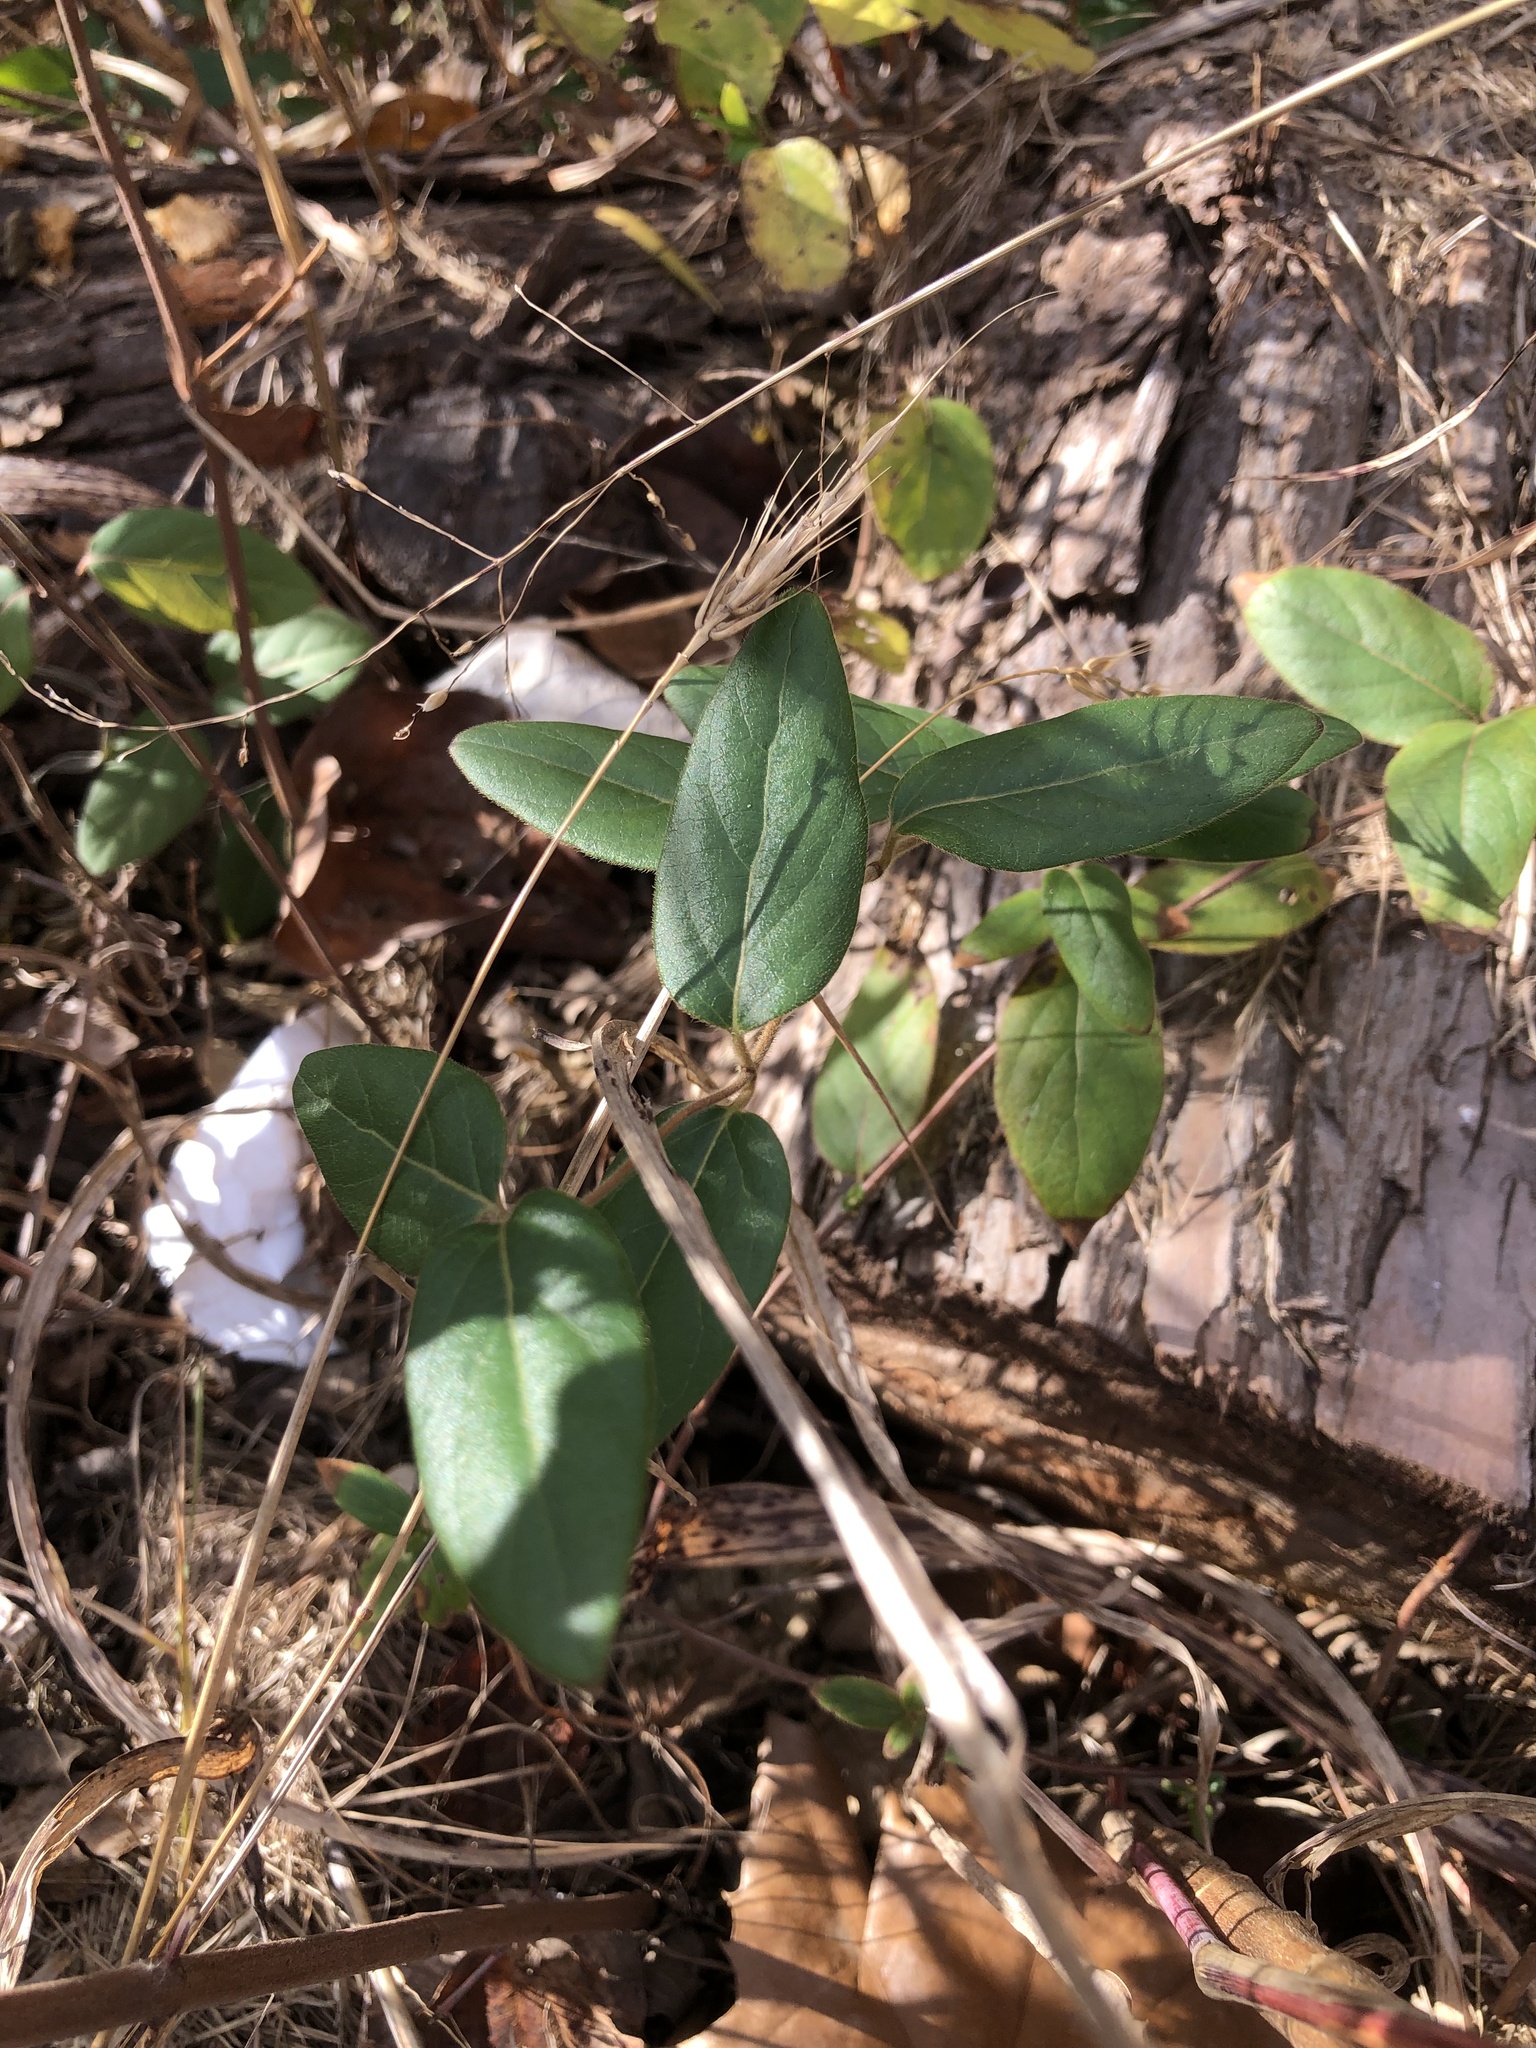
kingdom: Plantae
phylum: Tracheophyta
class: Magnoliopsida
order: Dipsacales
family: Caprifoliaceae
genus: Lonicera
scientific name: Lonicera japonica
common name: Japanese honeysuckle
